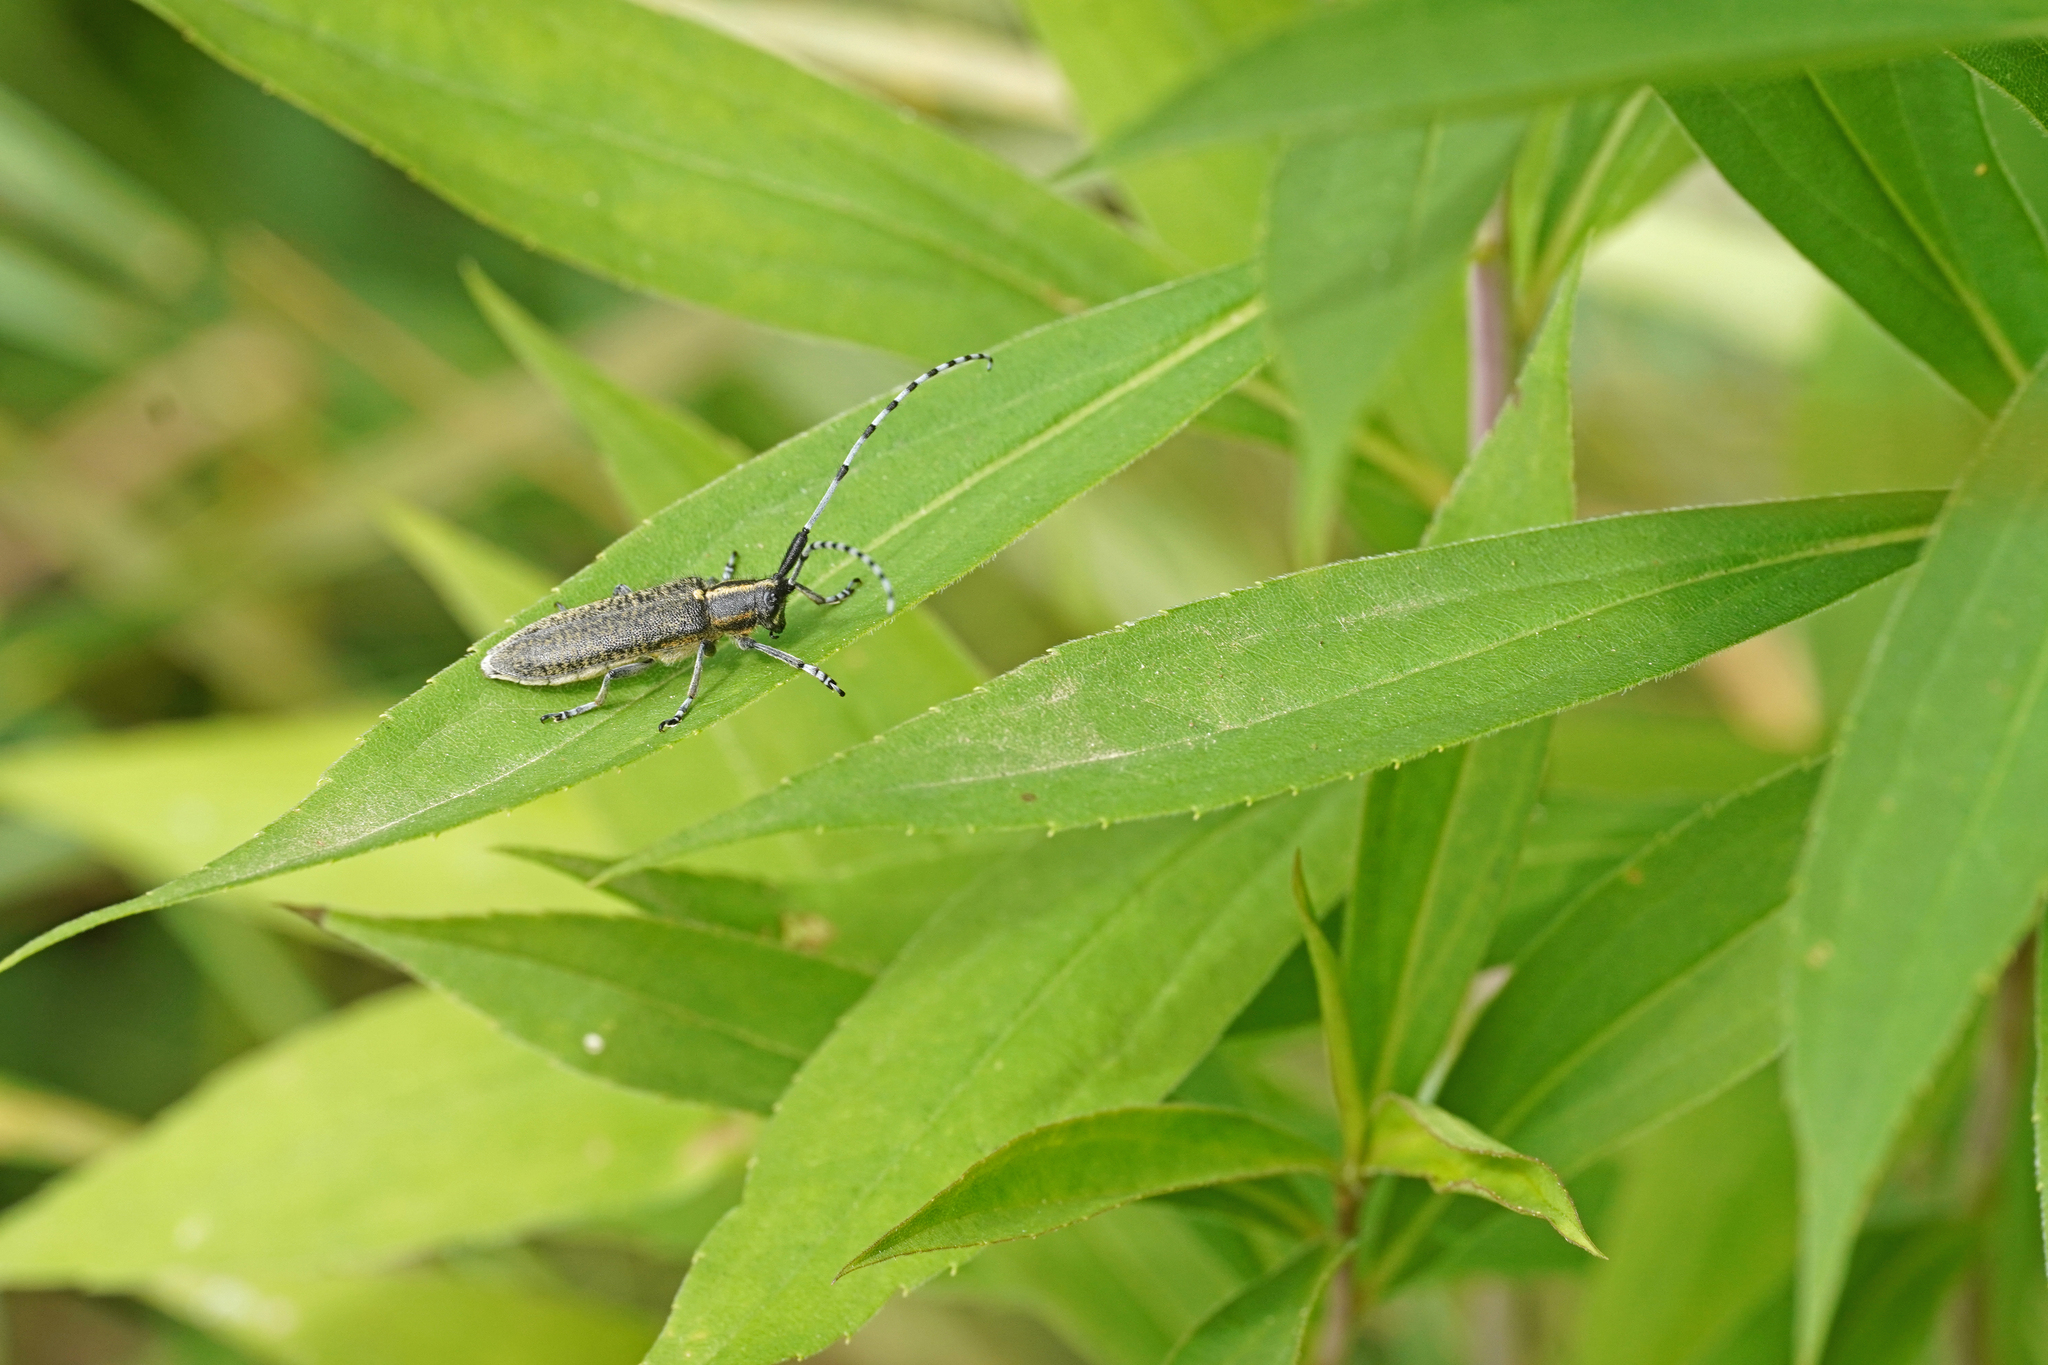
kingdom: Animalia
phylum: Arthropoda
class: Insecta
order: Coleoptera
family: Cerambycidae
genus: Agapanthia
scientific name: Agapanthia villosoviridescens
